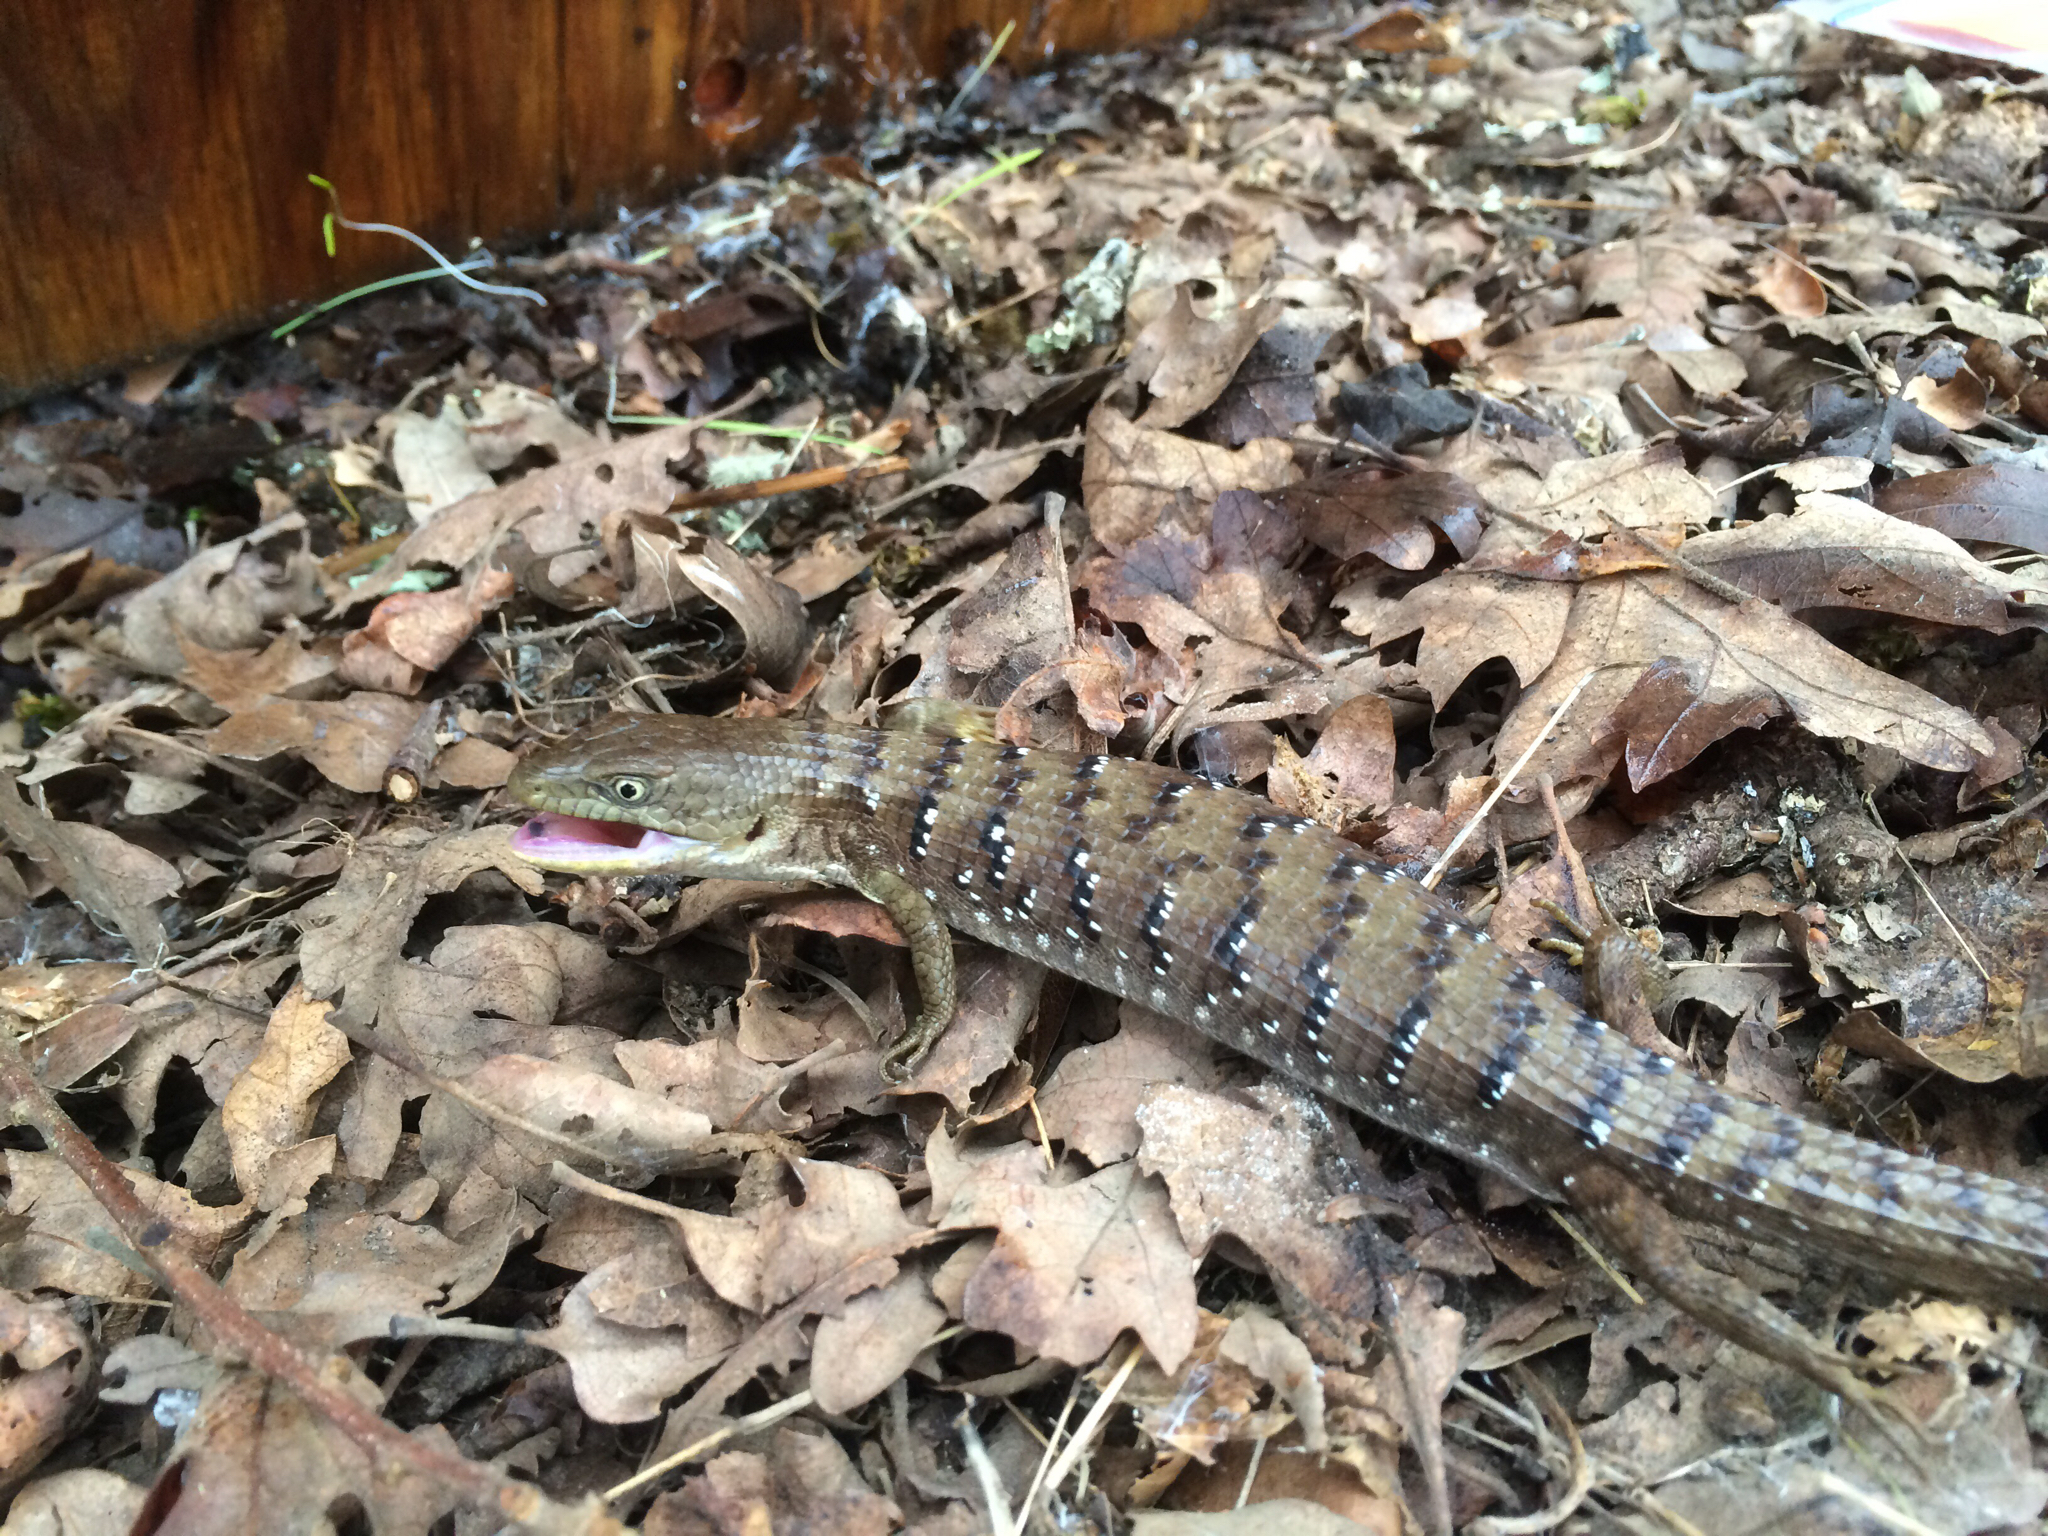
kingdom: Animalia
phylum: Chordata
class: Squamata
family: Anguidae
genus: Elgaria
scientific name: Elgaria multicarinata
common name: Southern alligator lizard
